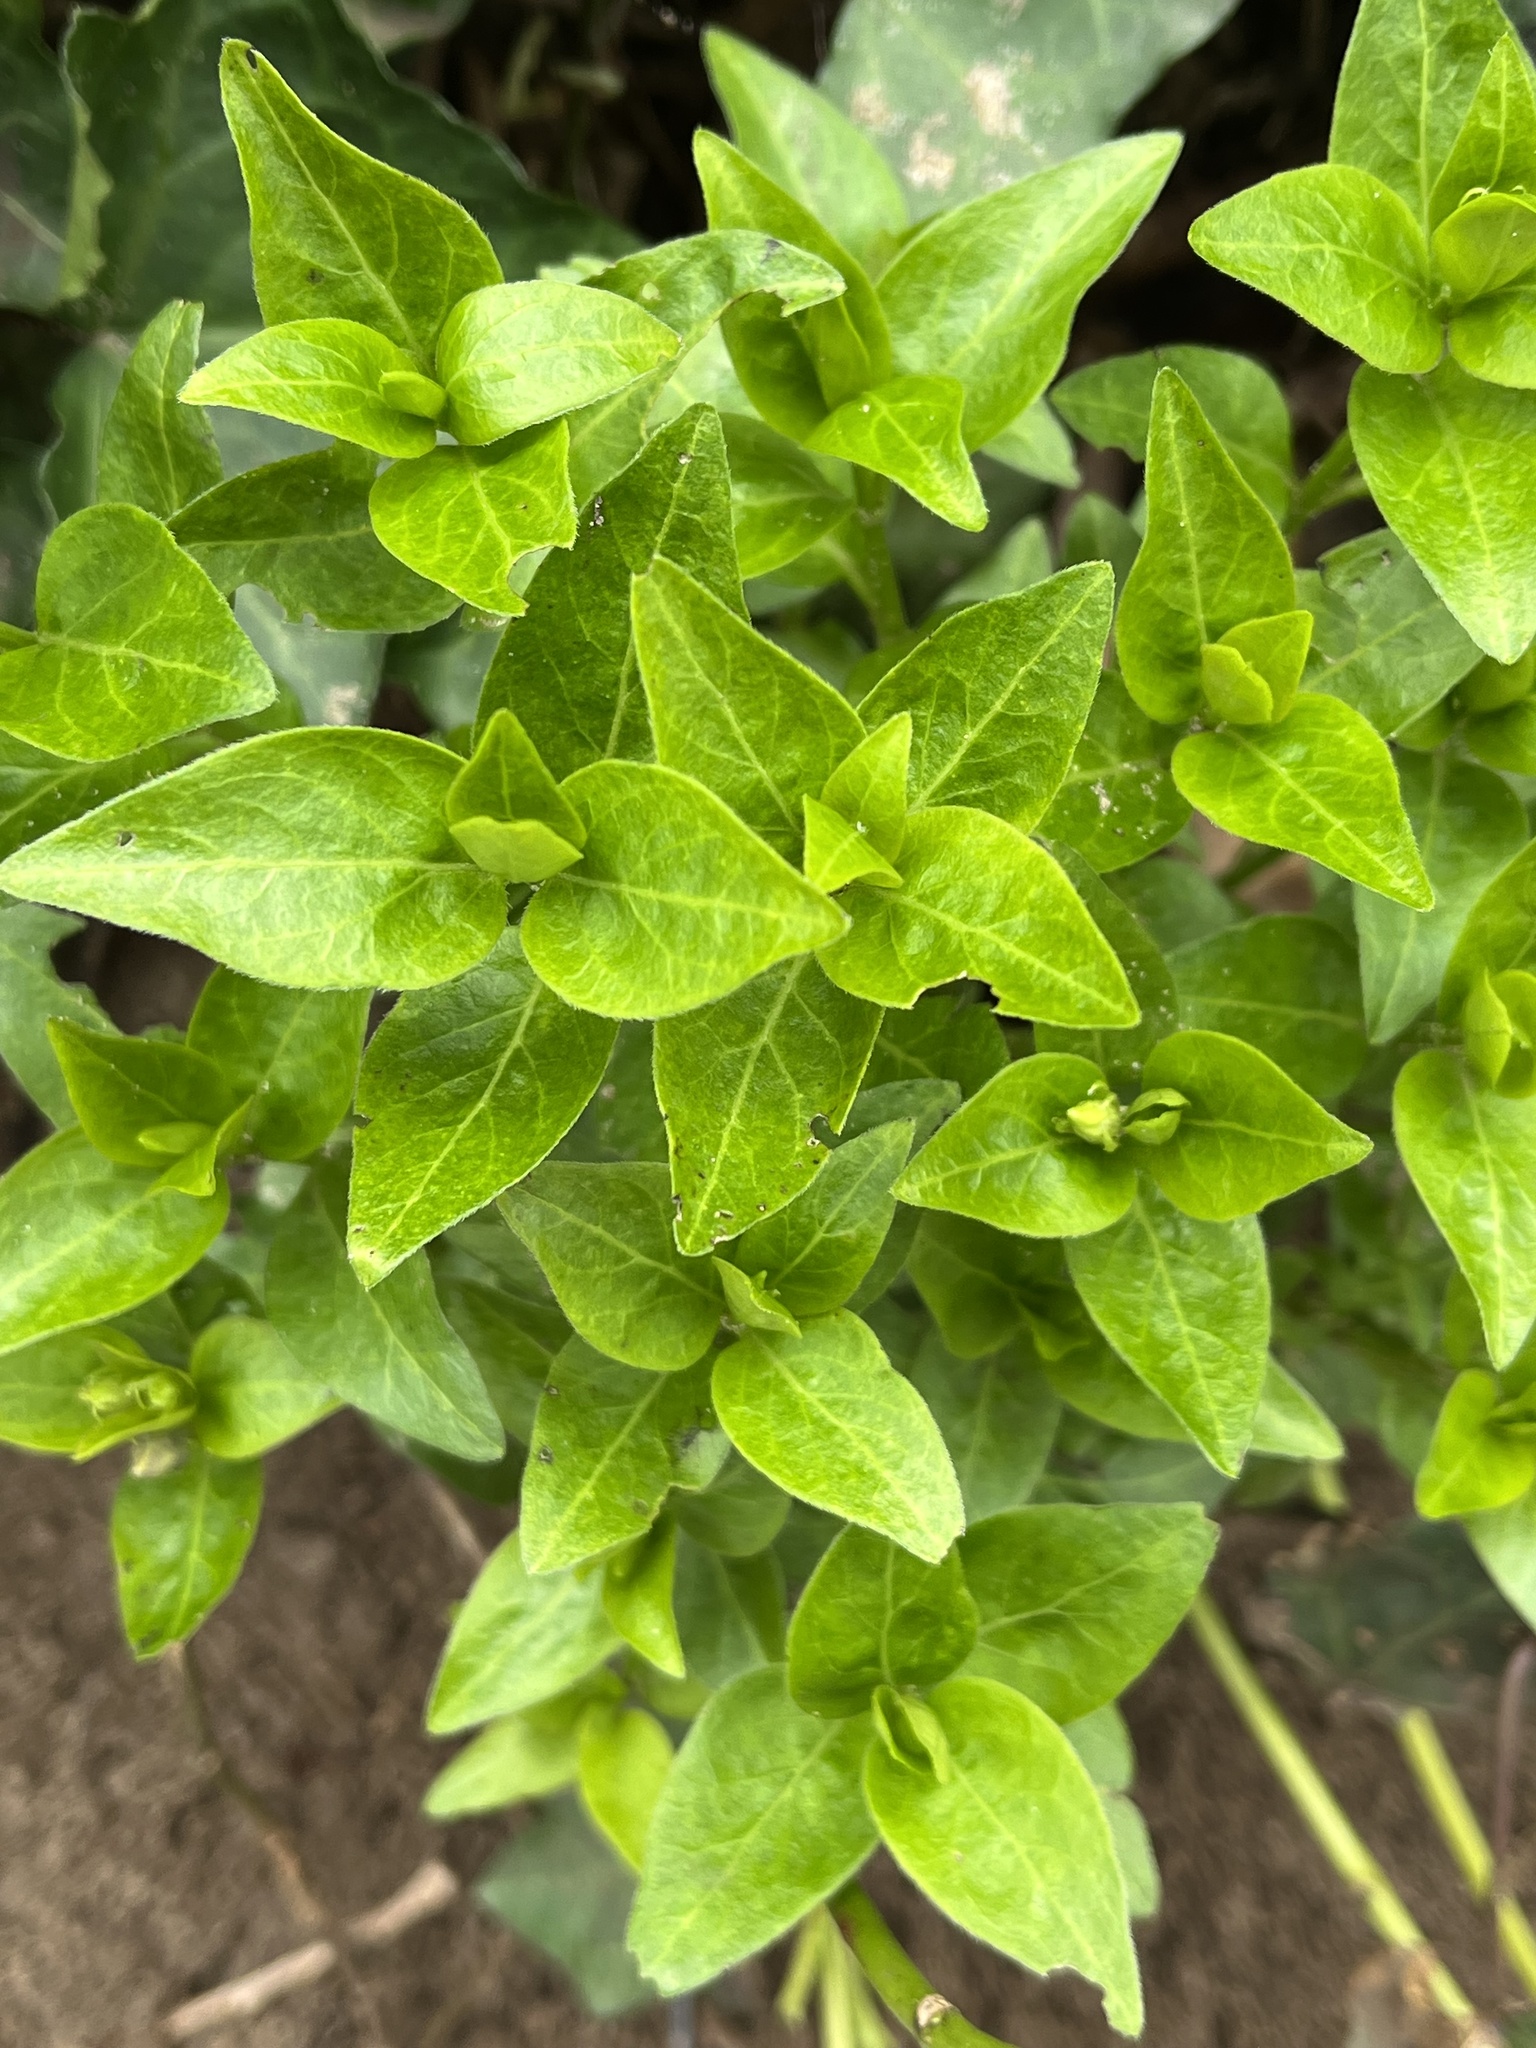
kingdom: Plantae
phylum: Tracheophyta
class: Magnoliopsida
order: Gentianales
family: Apocynaceae
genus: Vinca
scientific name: Vinca major
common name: Greater periwinkle
